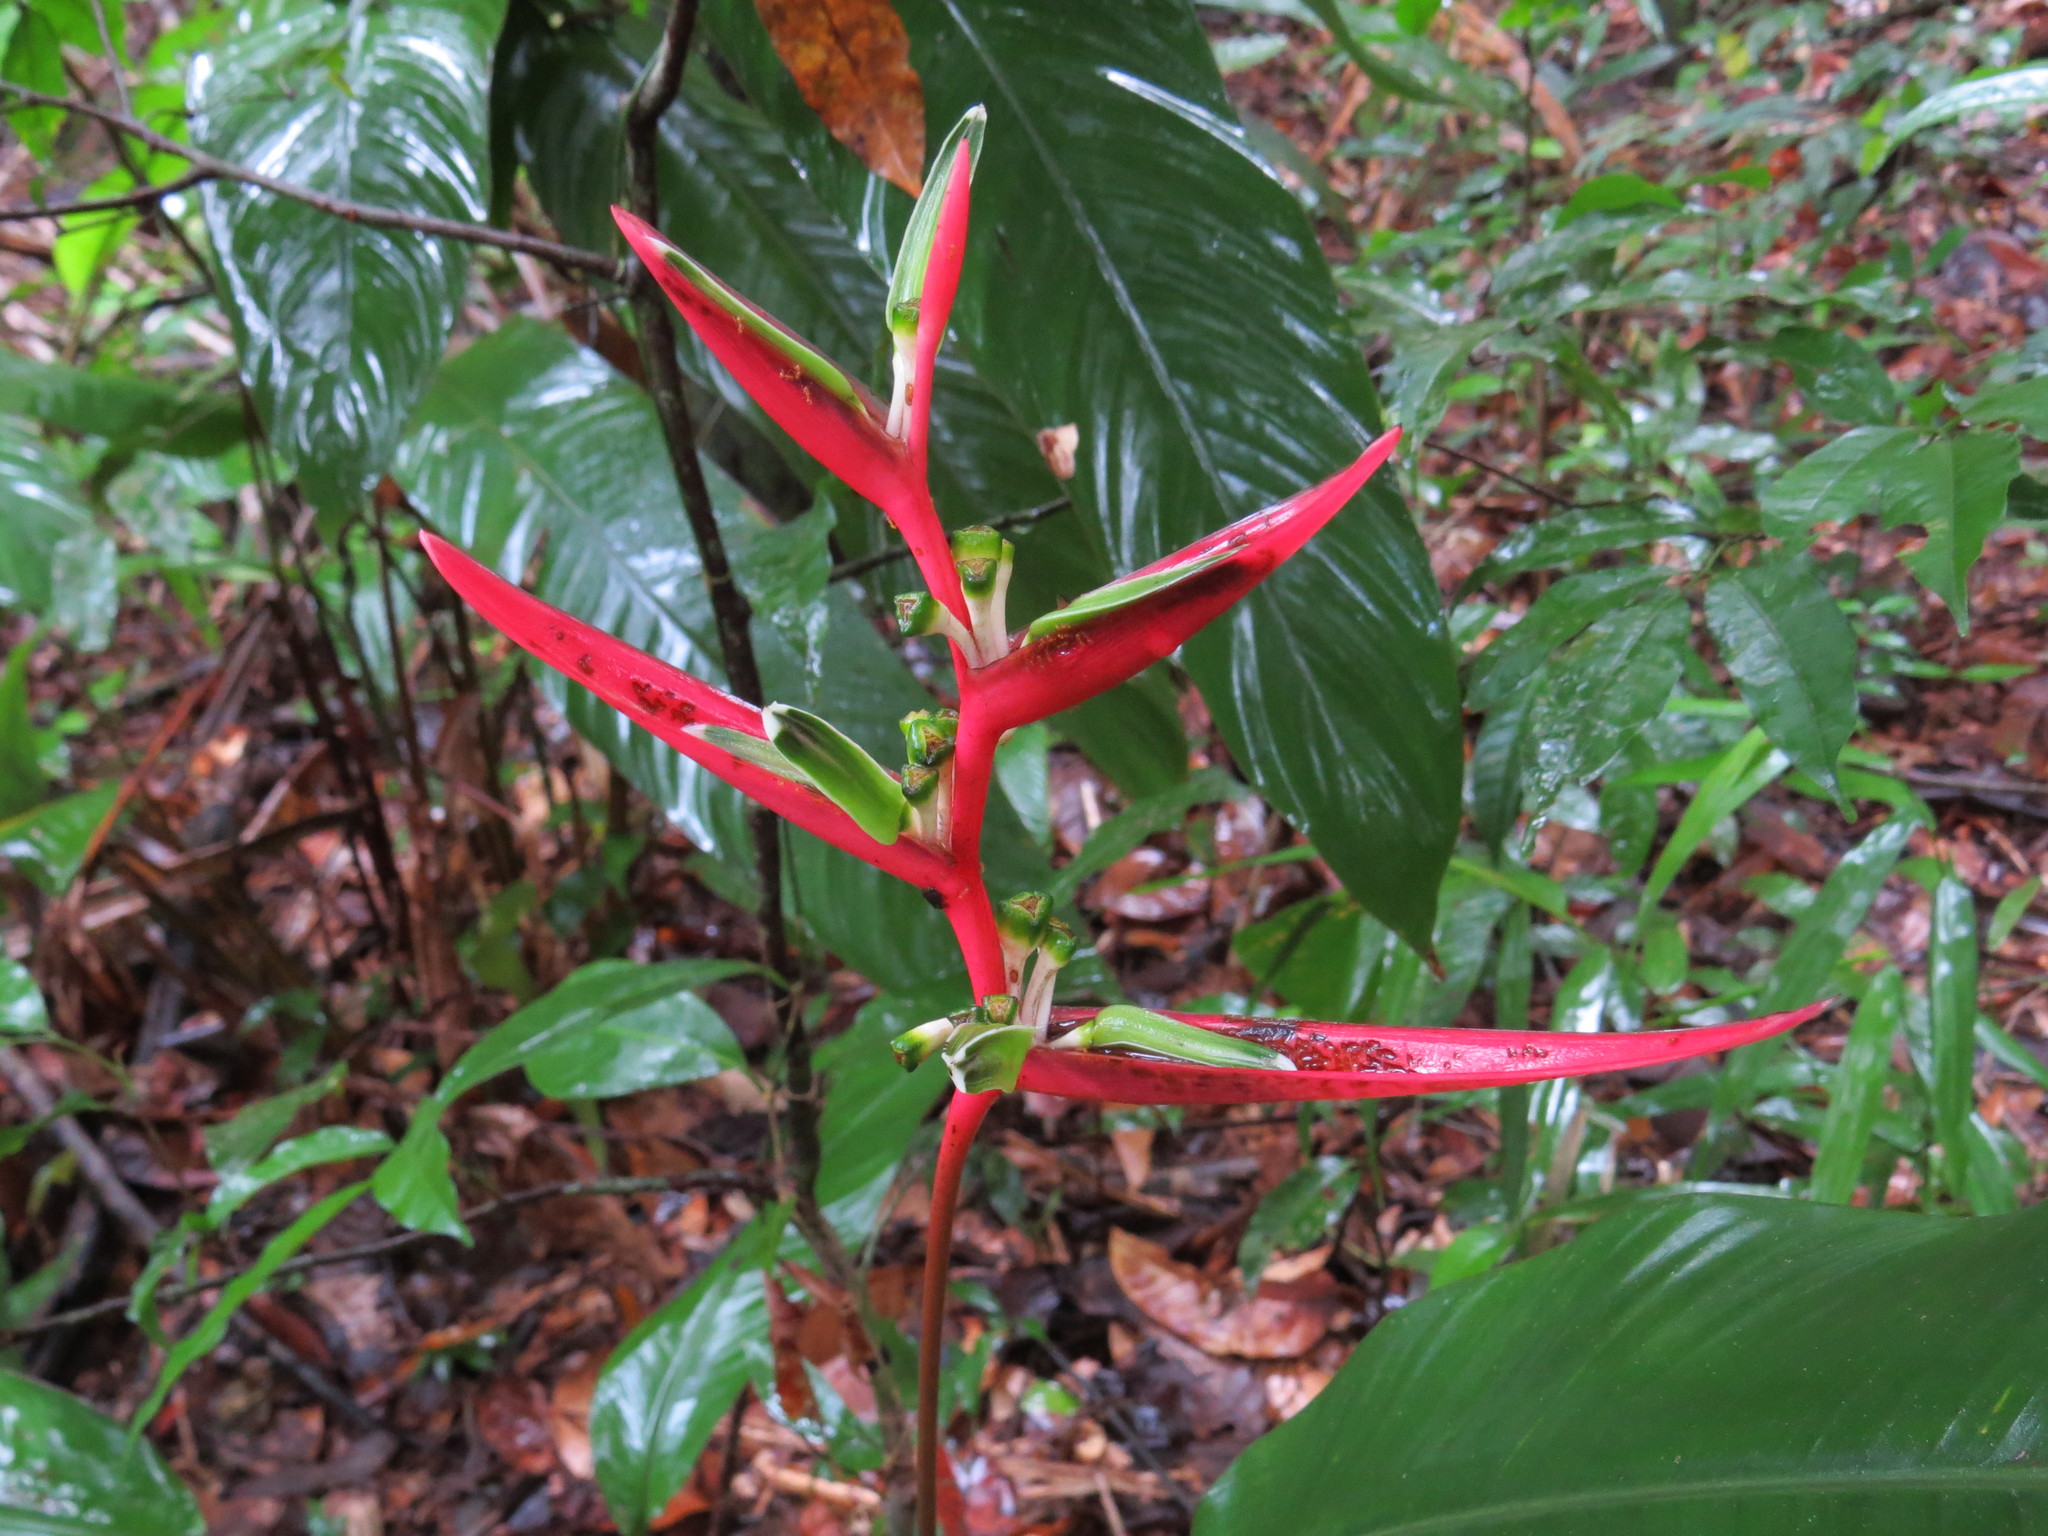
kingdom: Plantae
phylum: Tracheophyta
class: Liliopsida
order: Zingiberales
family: Heliconiaceae
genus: Heliconia
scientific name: Heliconia acuminata
